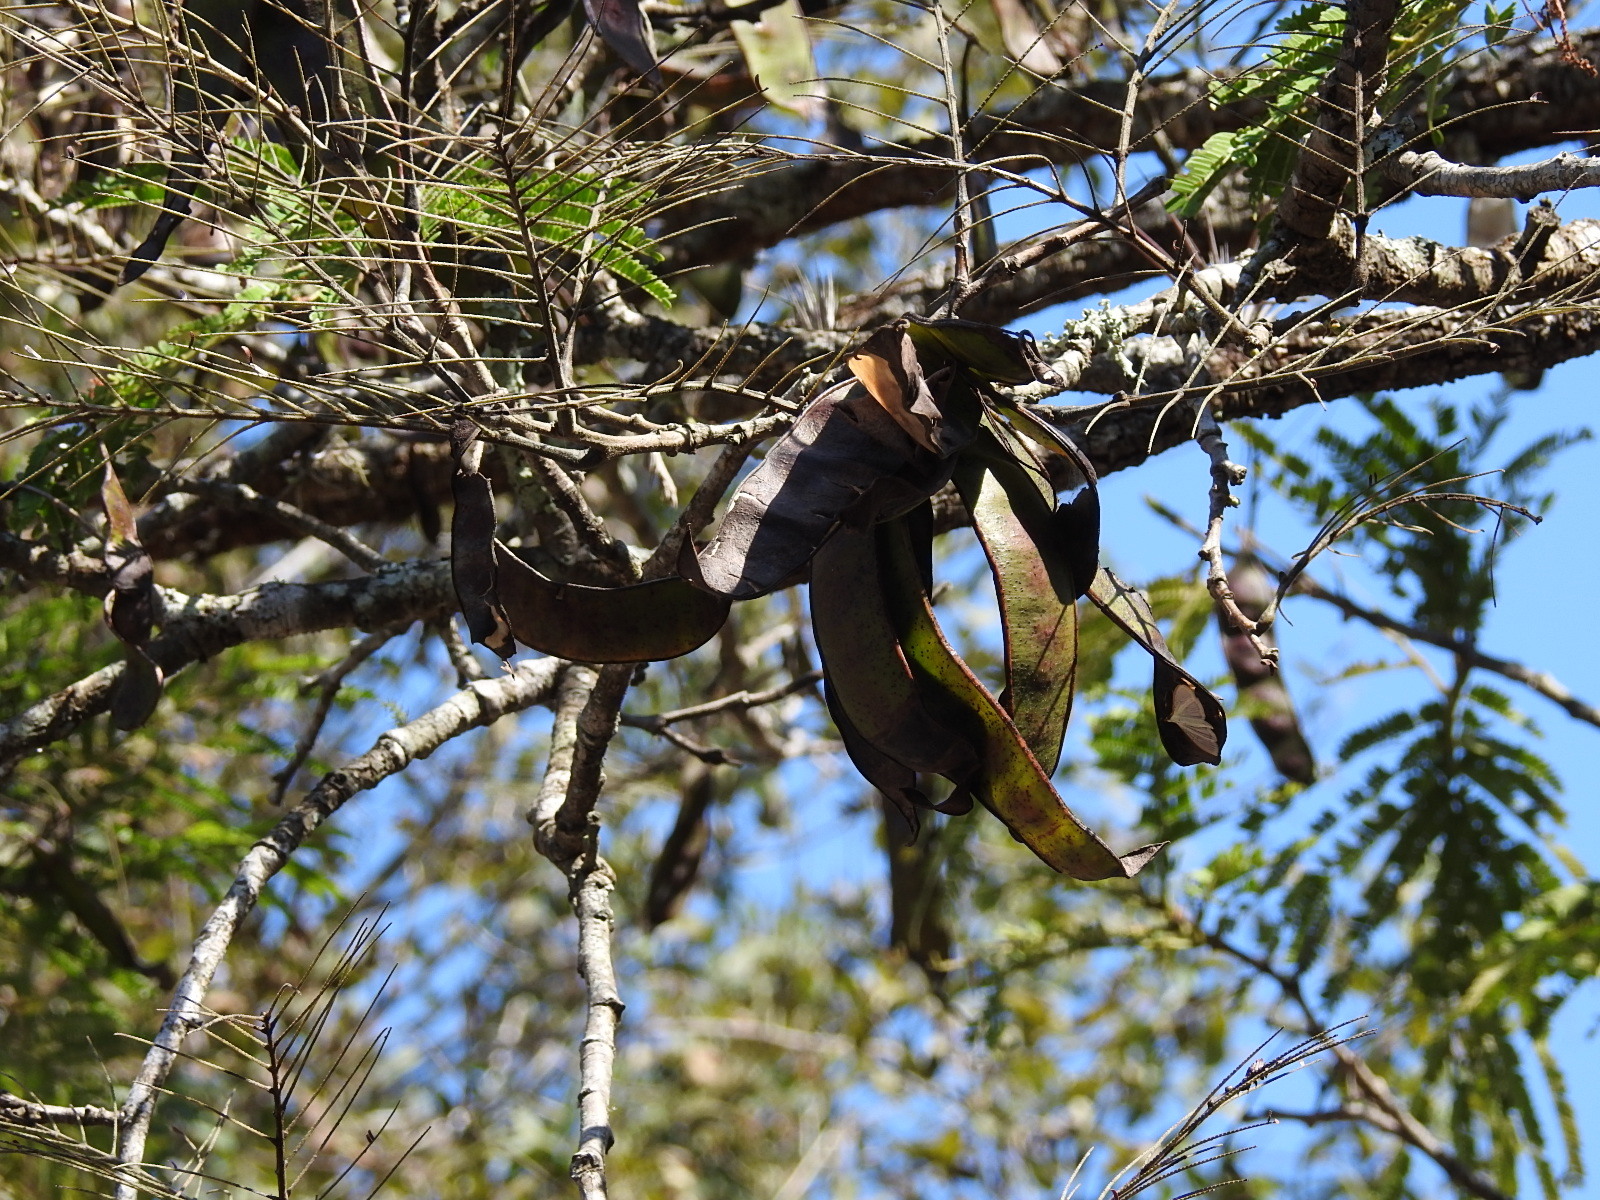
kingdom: Plantae
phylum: Tracheophyta
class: Magnoliopsida
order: Fabales
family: Fabaceae
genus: Lysiloma
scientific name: Lysiloma divaricatum
